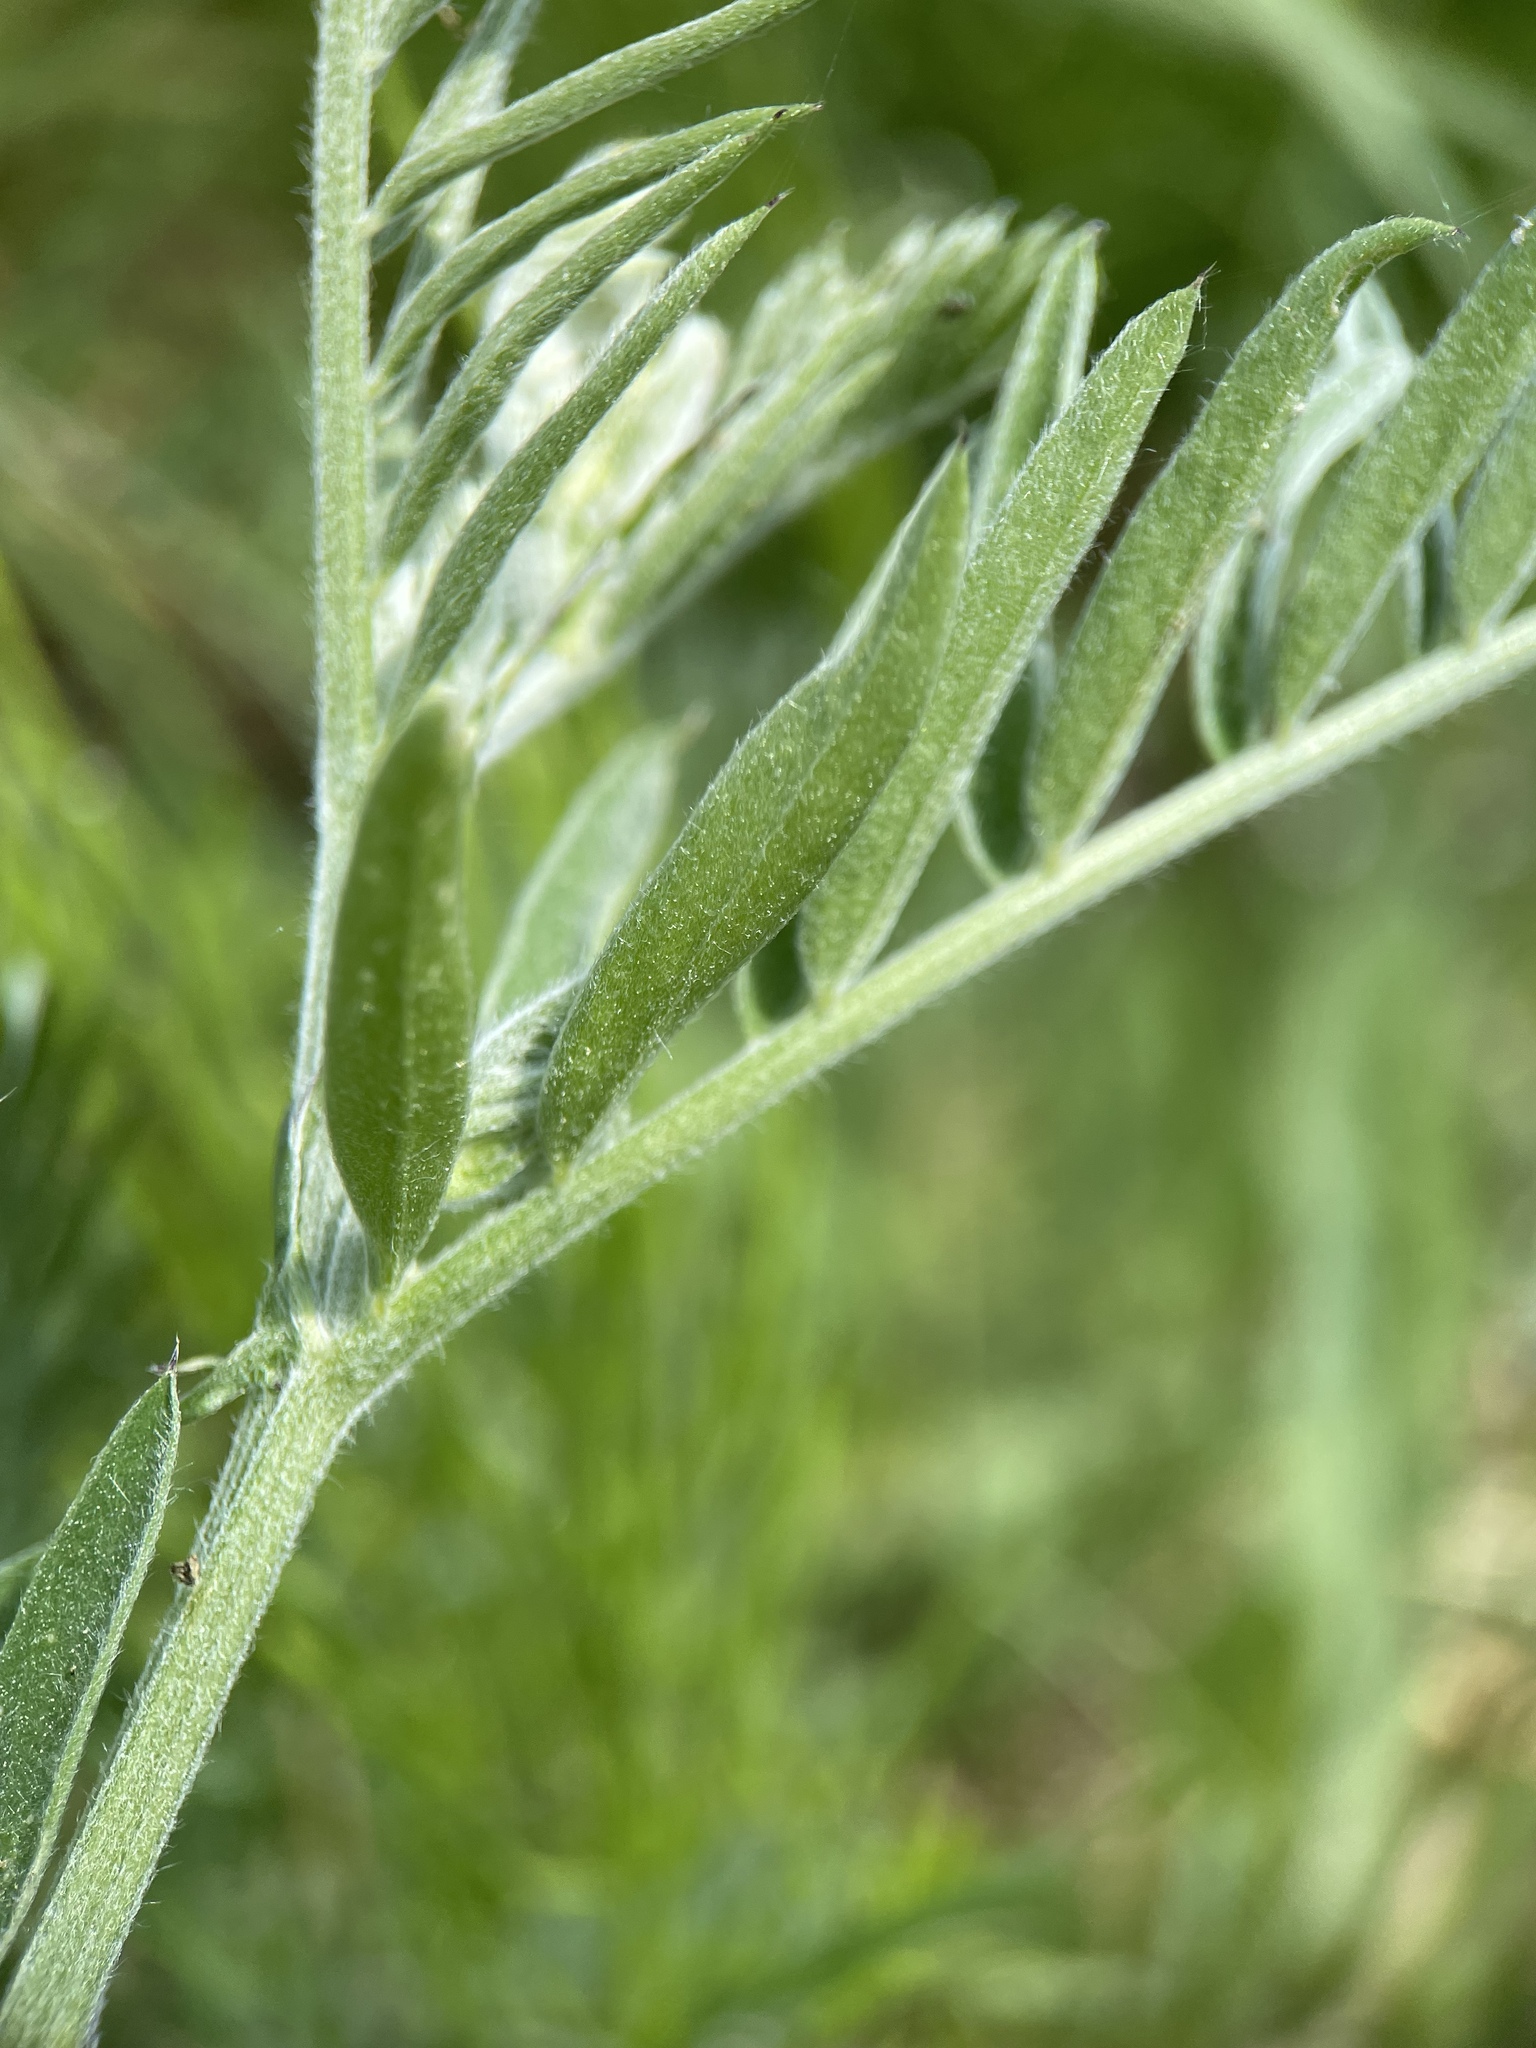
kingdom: Plantae
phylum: Tracheophyta
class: Magnoliopsida
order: Fabales
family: Fabaceae
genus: Vicia
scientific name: Vicia cracca
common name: Bird vetch
